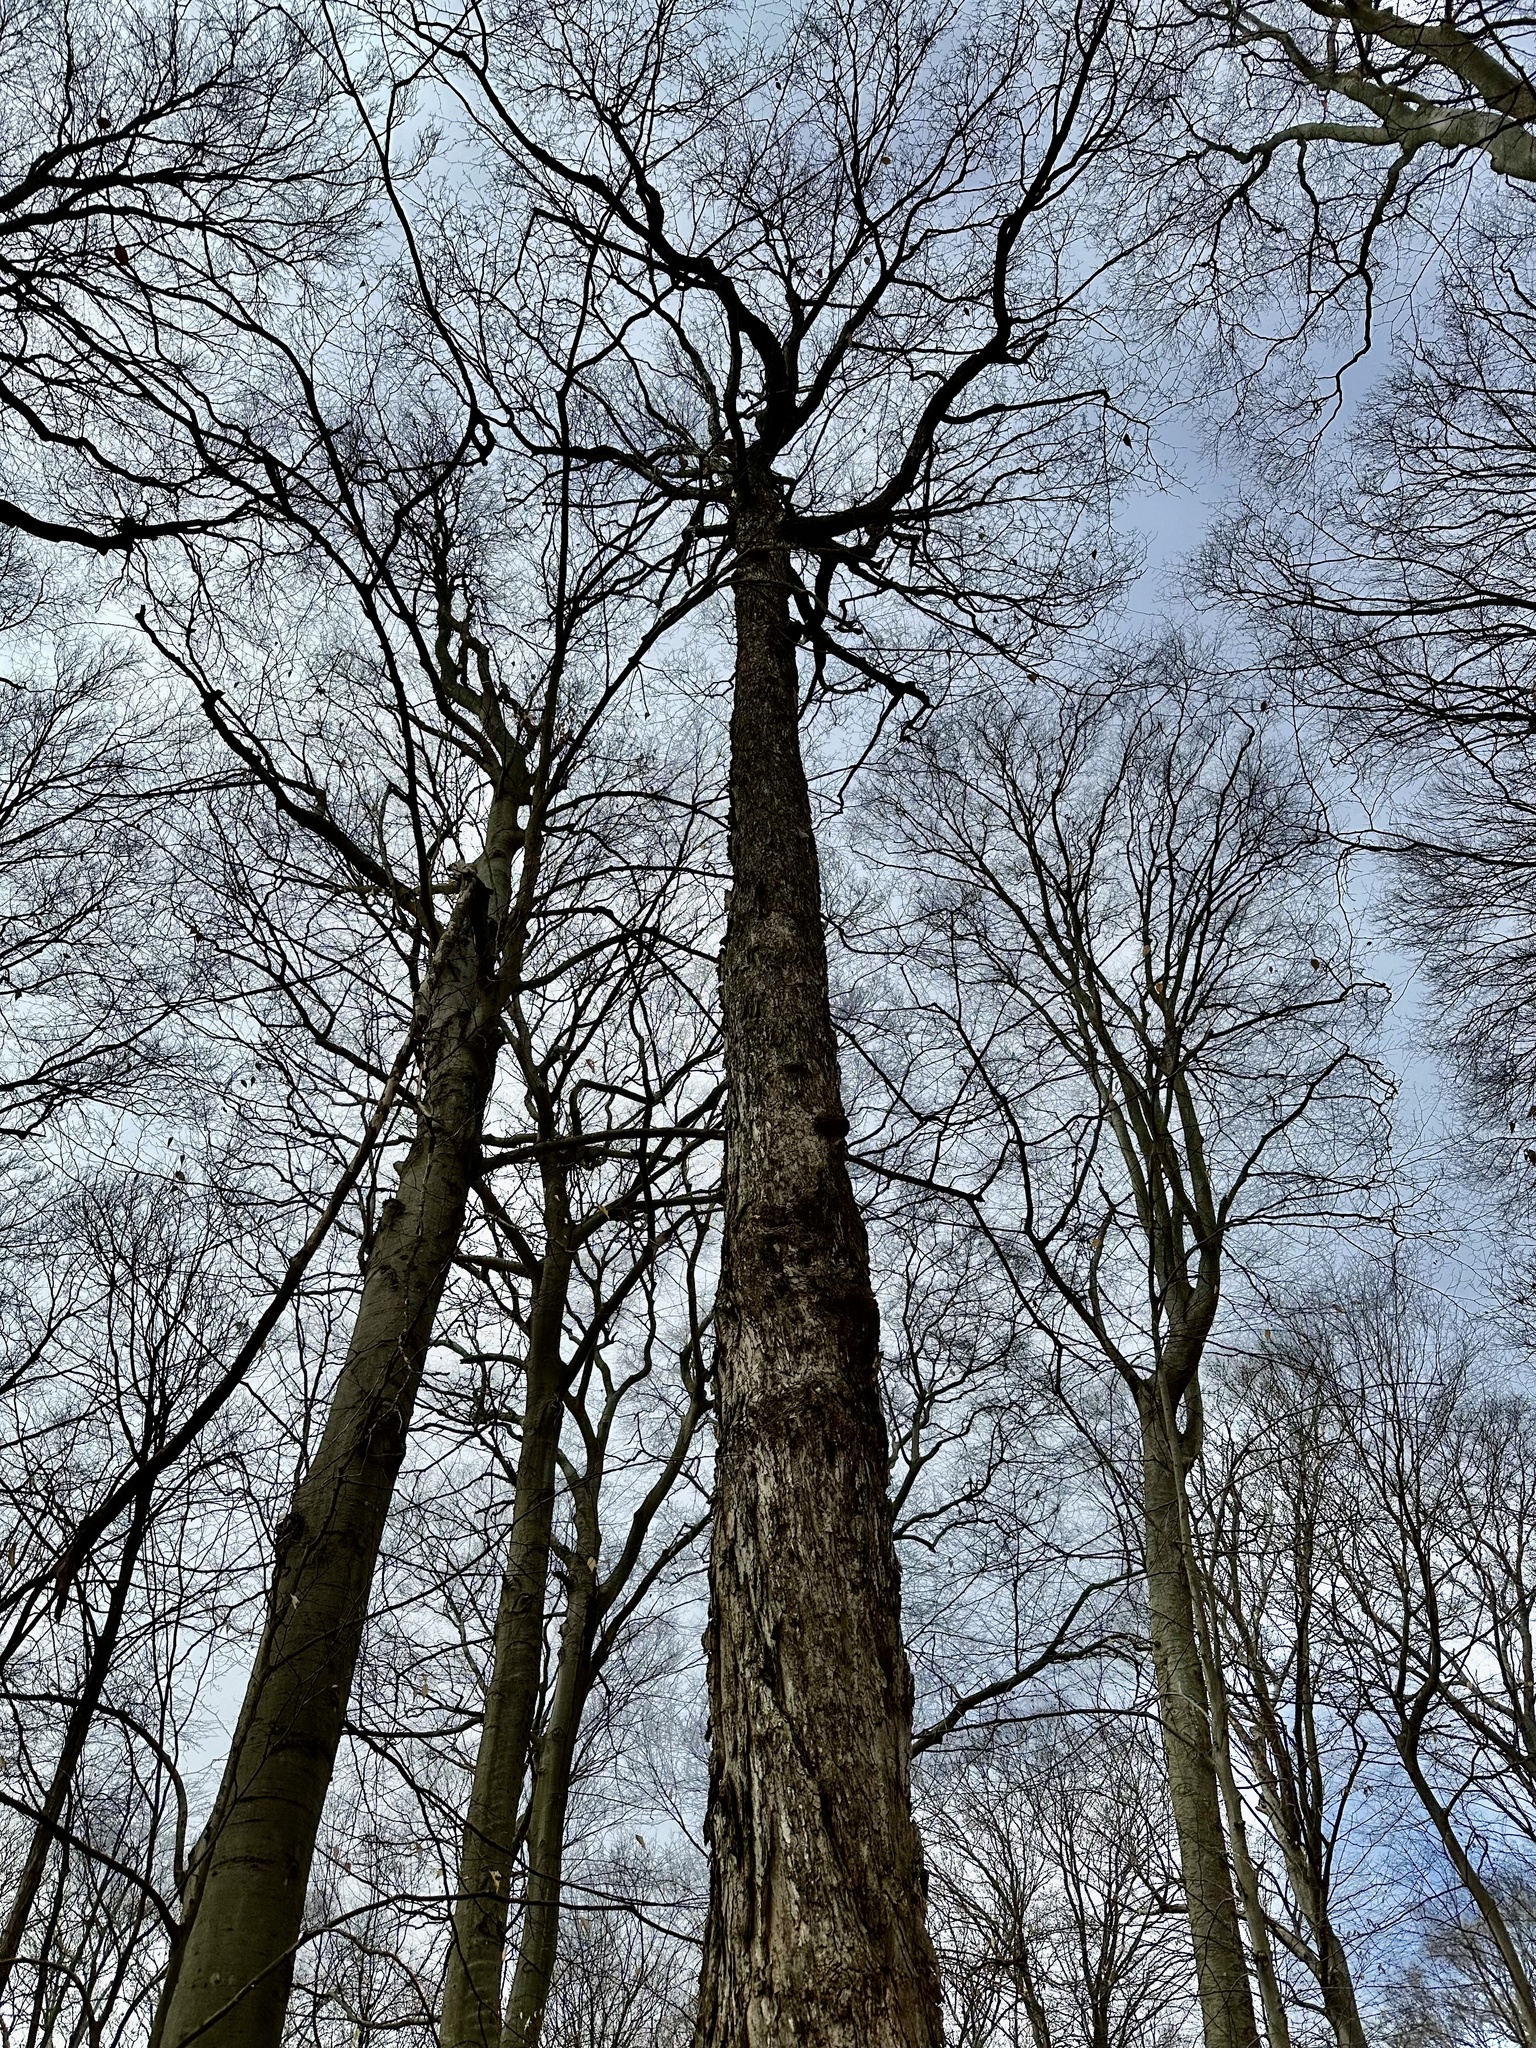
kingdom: Plantae
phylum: Tracheophyta
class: Magnoliopsida
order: Sapindales
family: Sapindaceae
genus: Acer
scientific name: Acer saccharum
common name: Sugar maple
